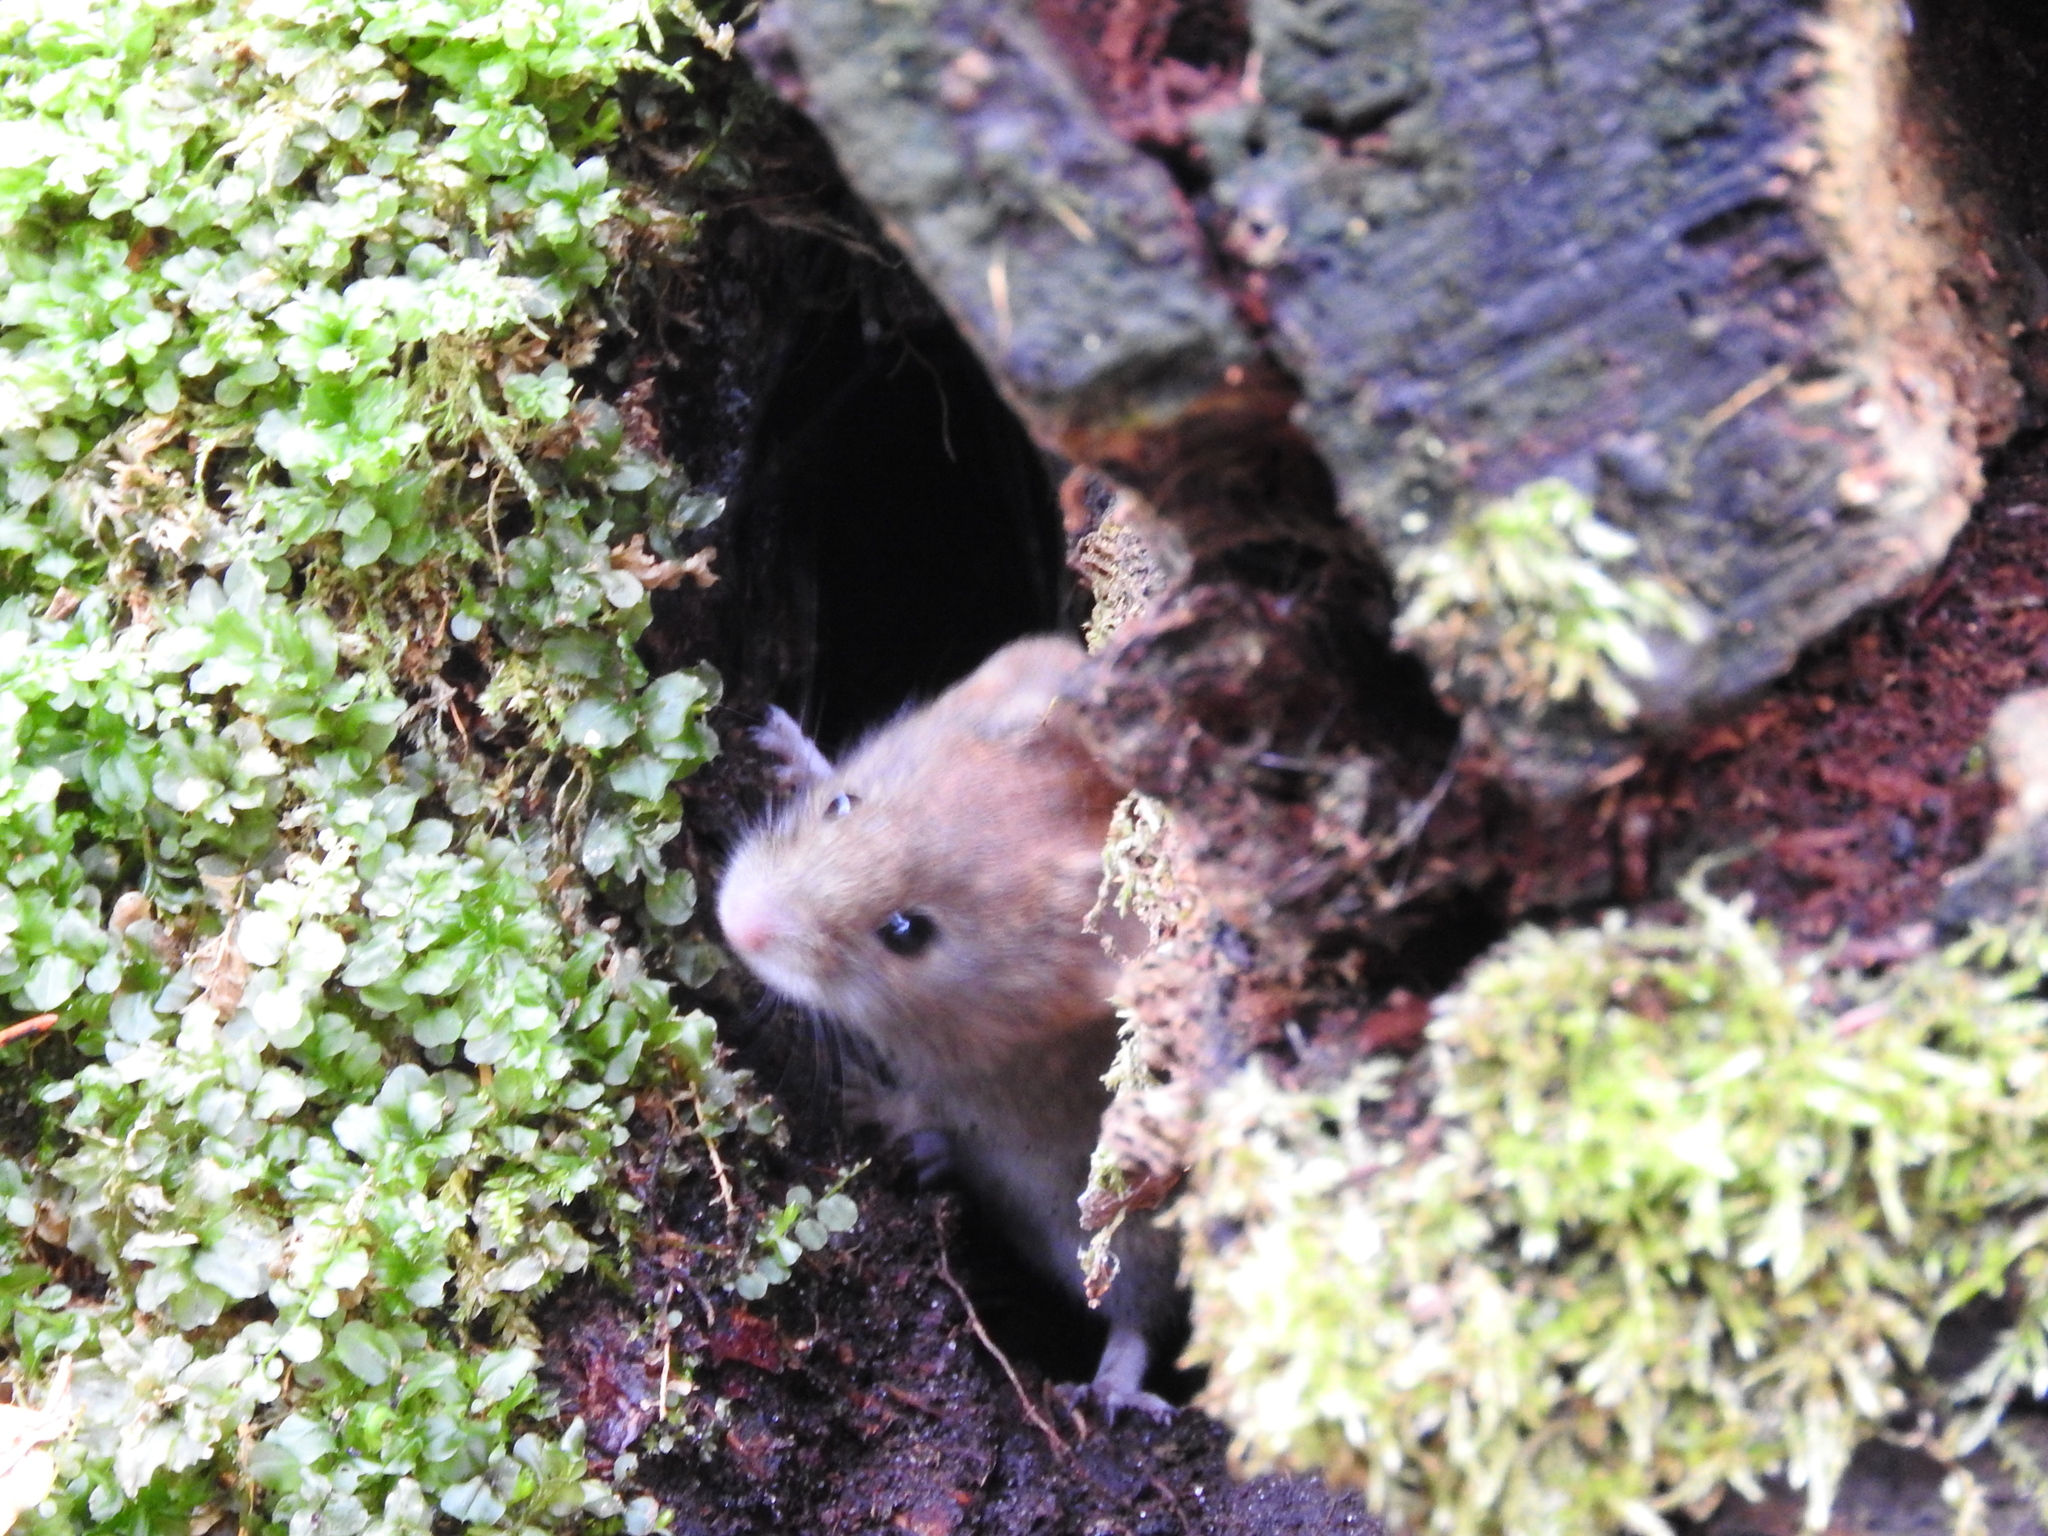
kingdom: Animalia
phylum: Chordata
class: Mammalia
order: Rodentia
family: Cricetidae
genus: Myodes
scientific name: Myodes glareolus
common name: Bank vole
